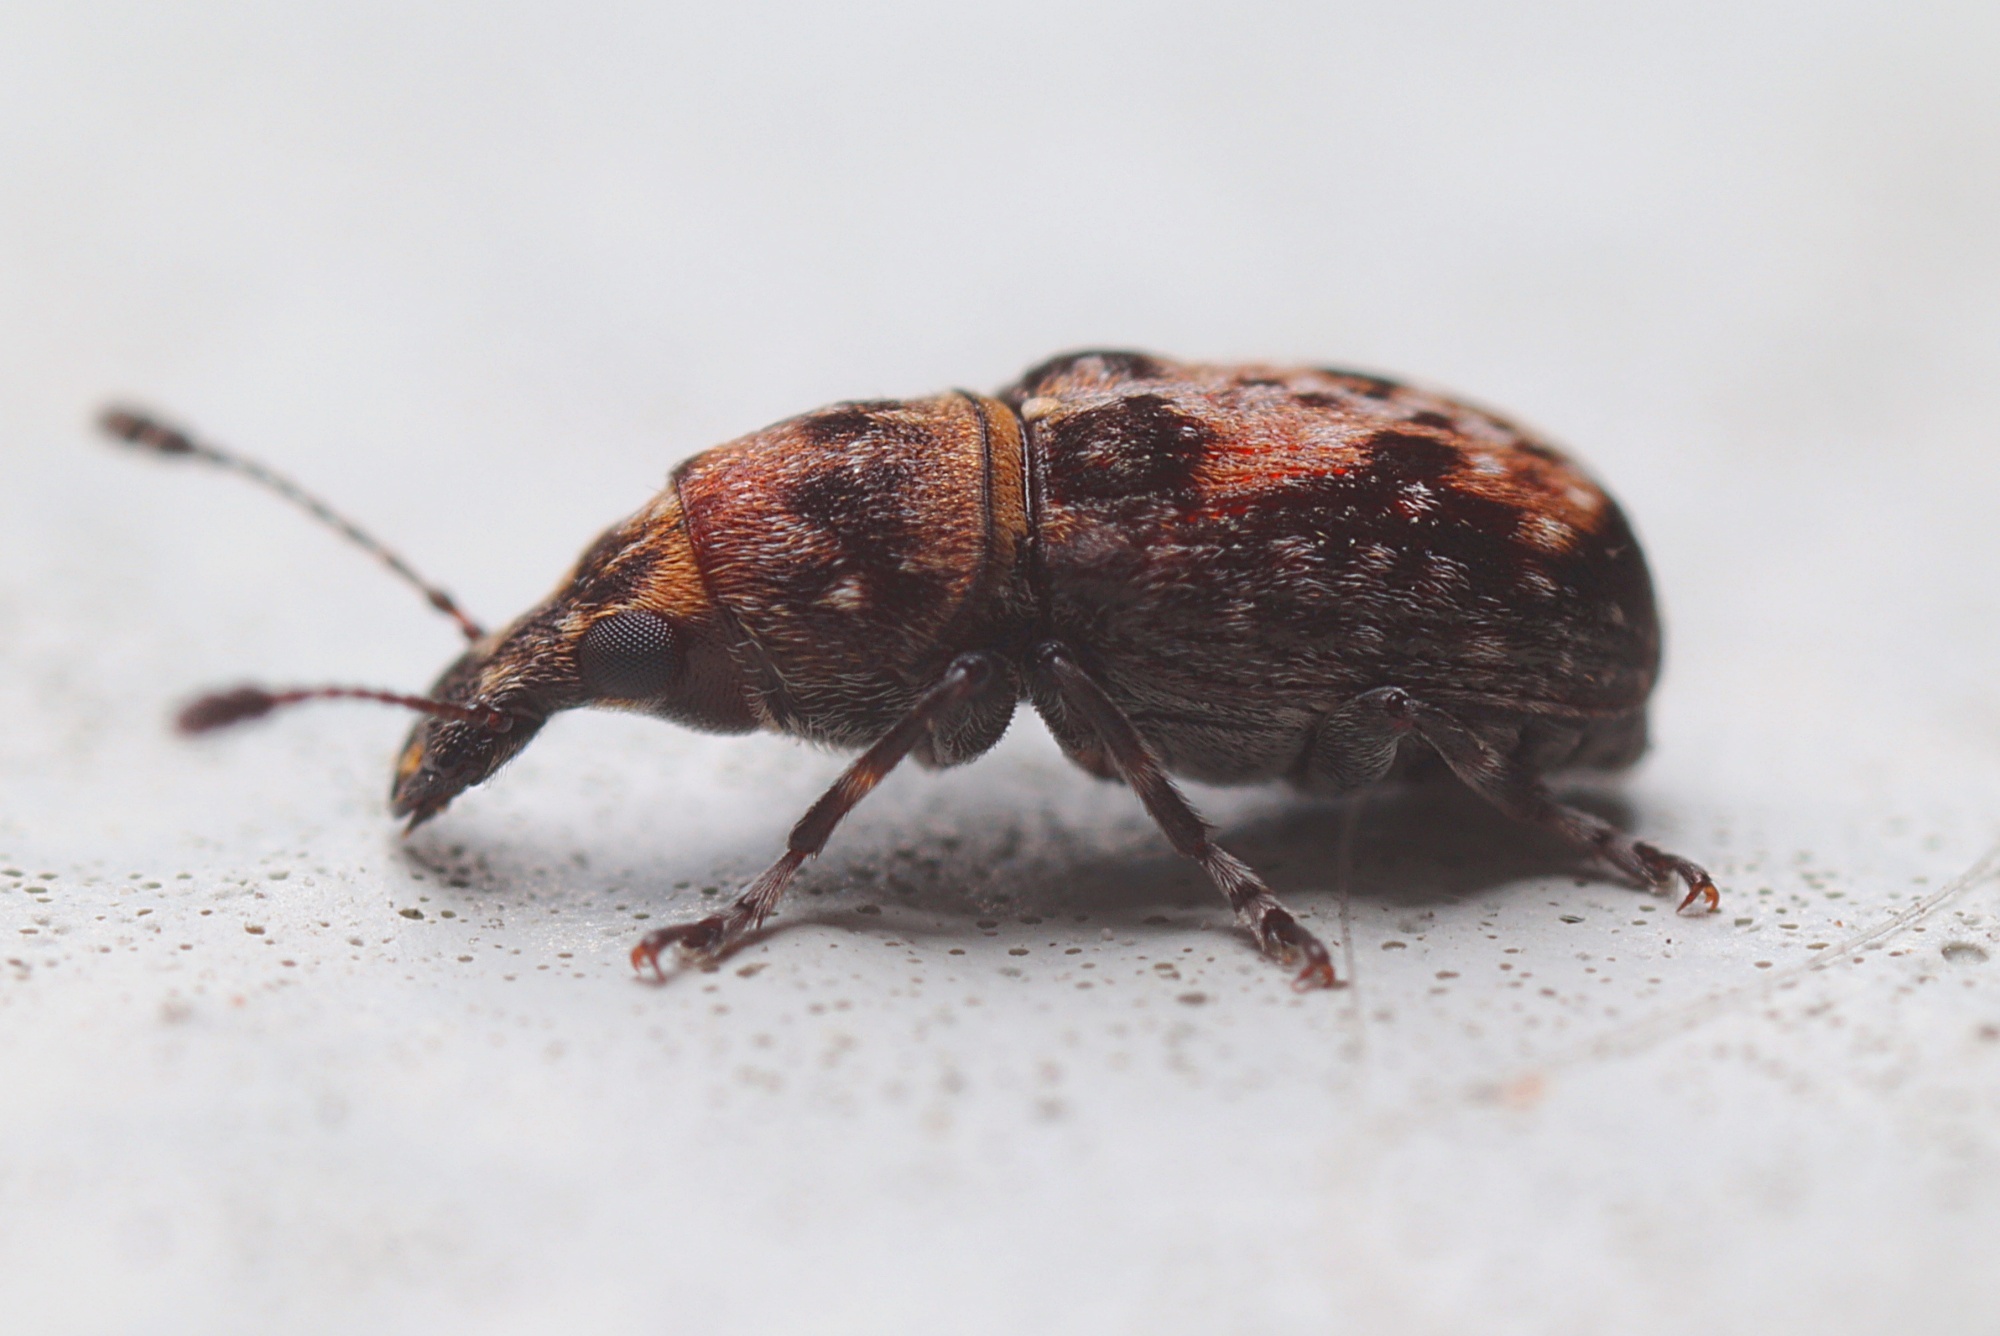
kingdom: Animalia
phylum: Arthropoda
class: Insecta
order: Coleoptera
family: Anthribidae
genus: Sharpius
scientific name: Sharpius
